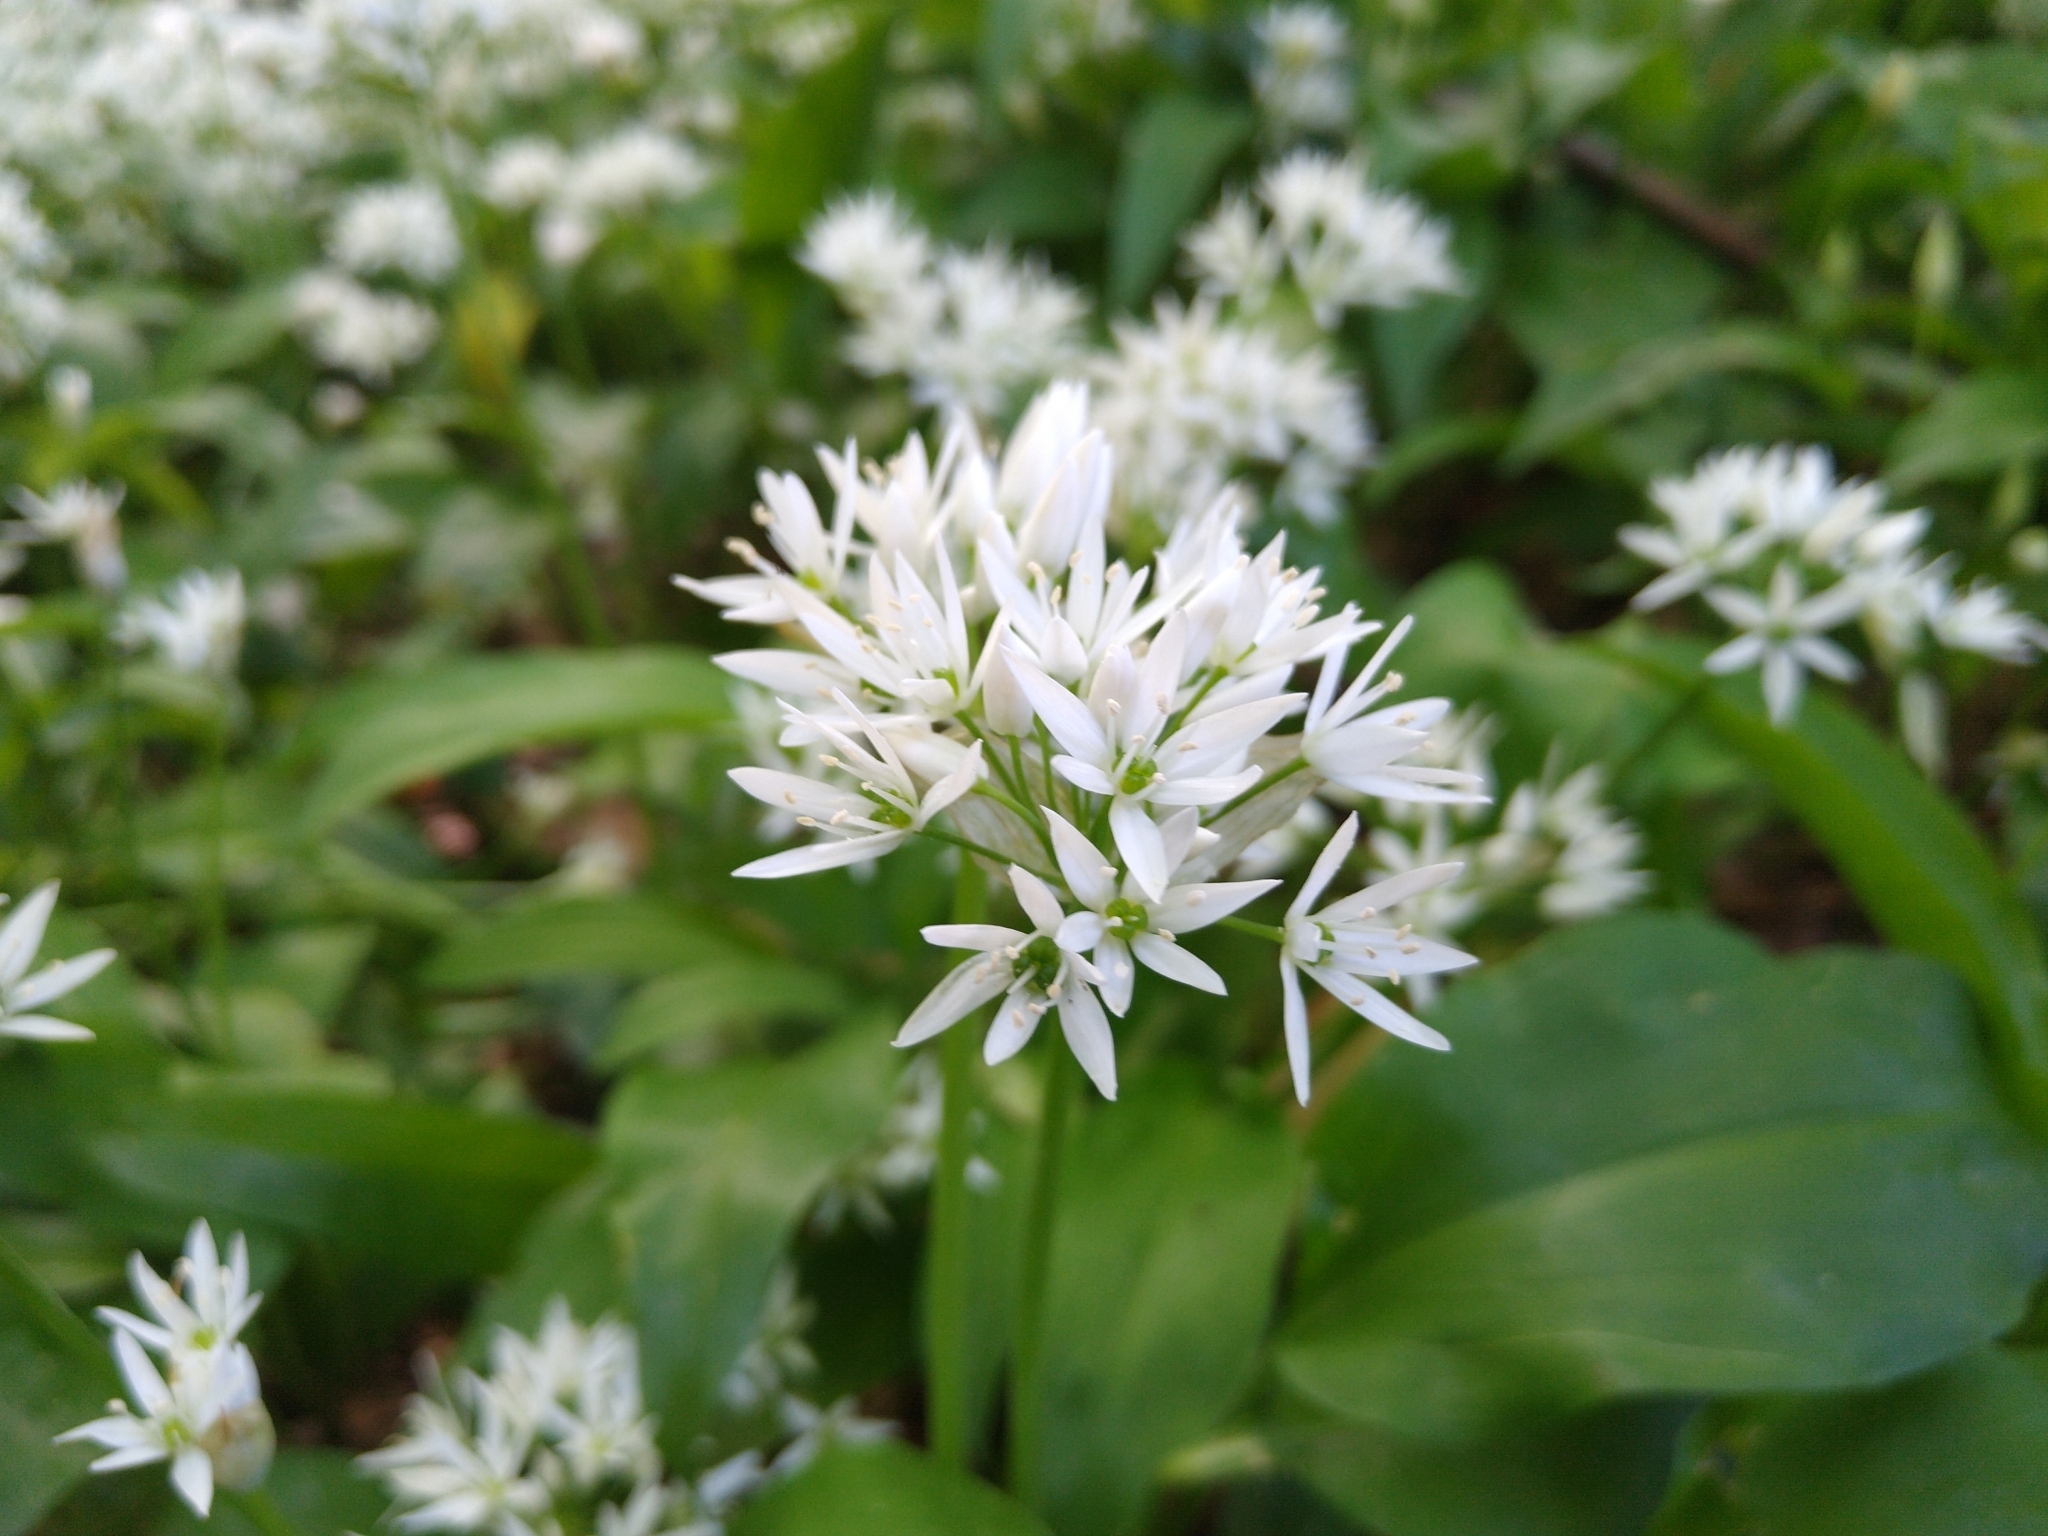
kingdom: Plantae
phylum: Tracheophyta
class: Liliopsida
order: Asparagales
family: Amaryllidaceae
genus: Allium
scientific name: Allium ursinum
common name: Ramsons
